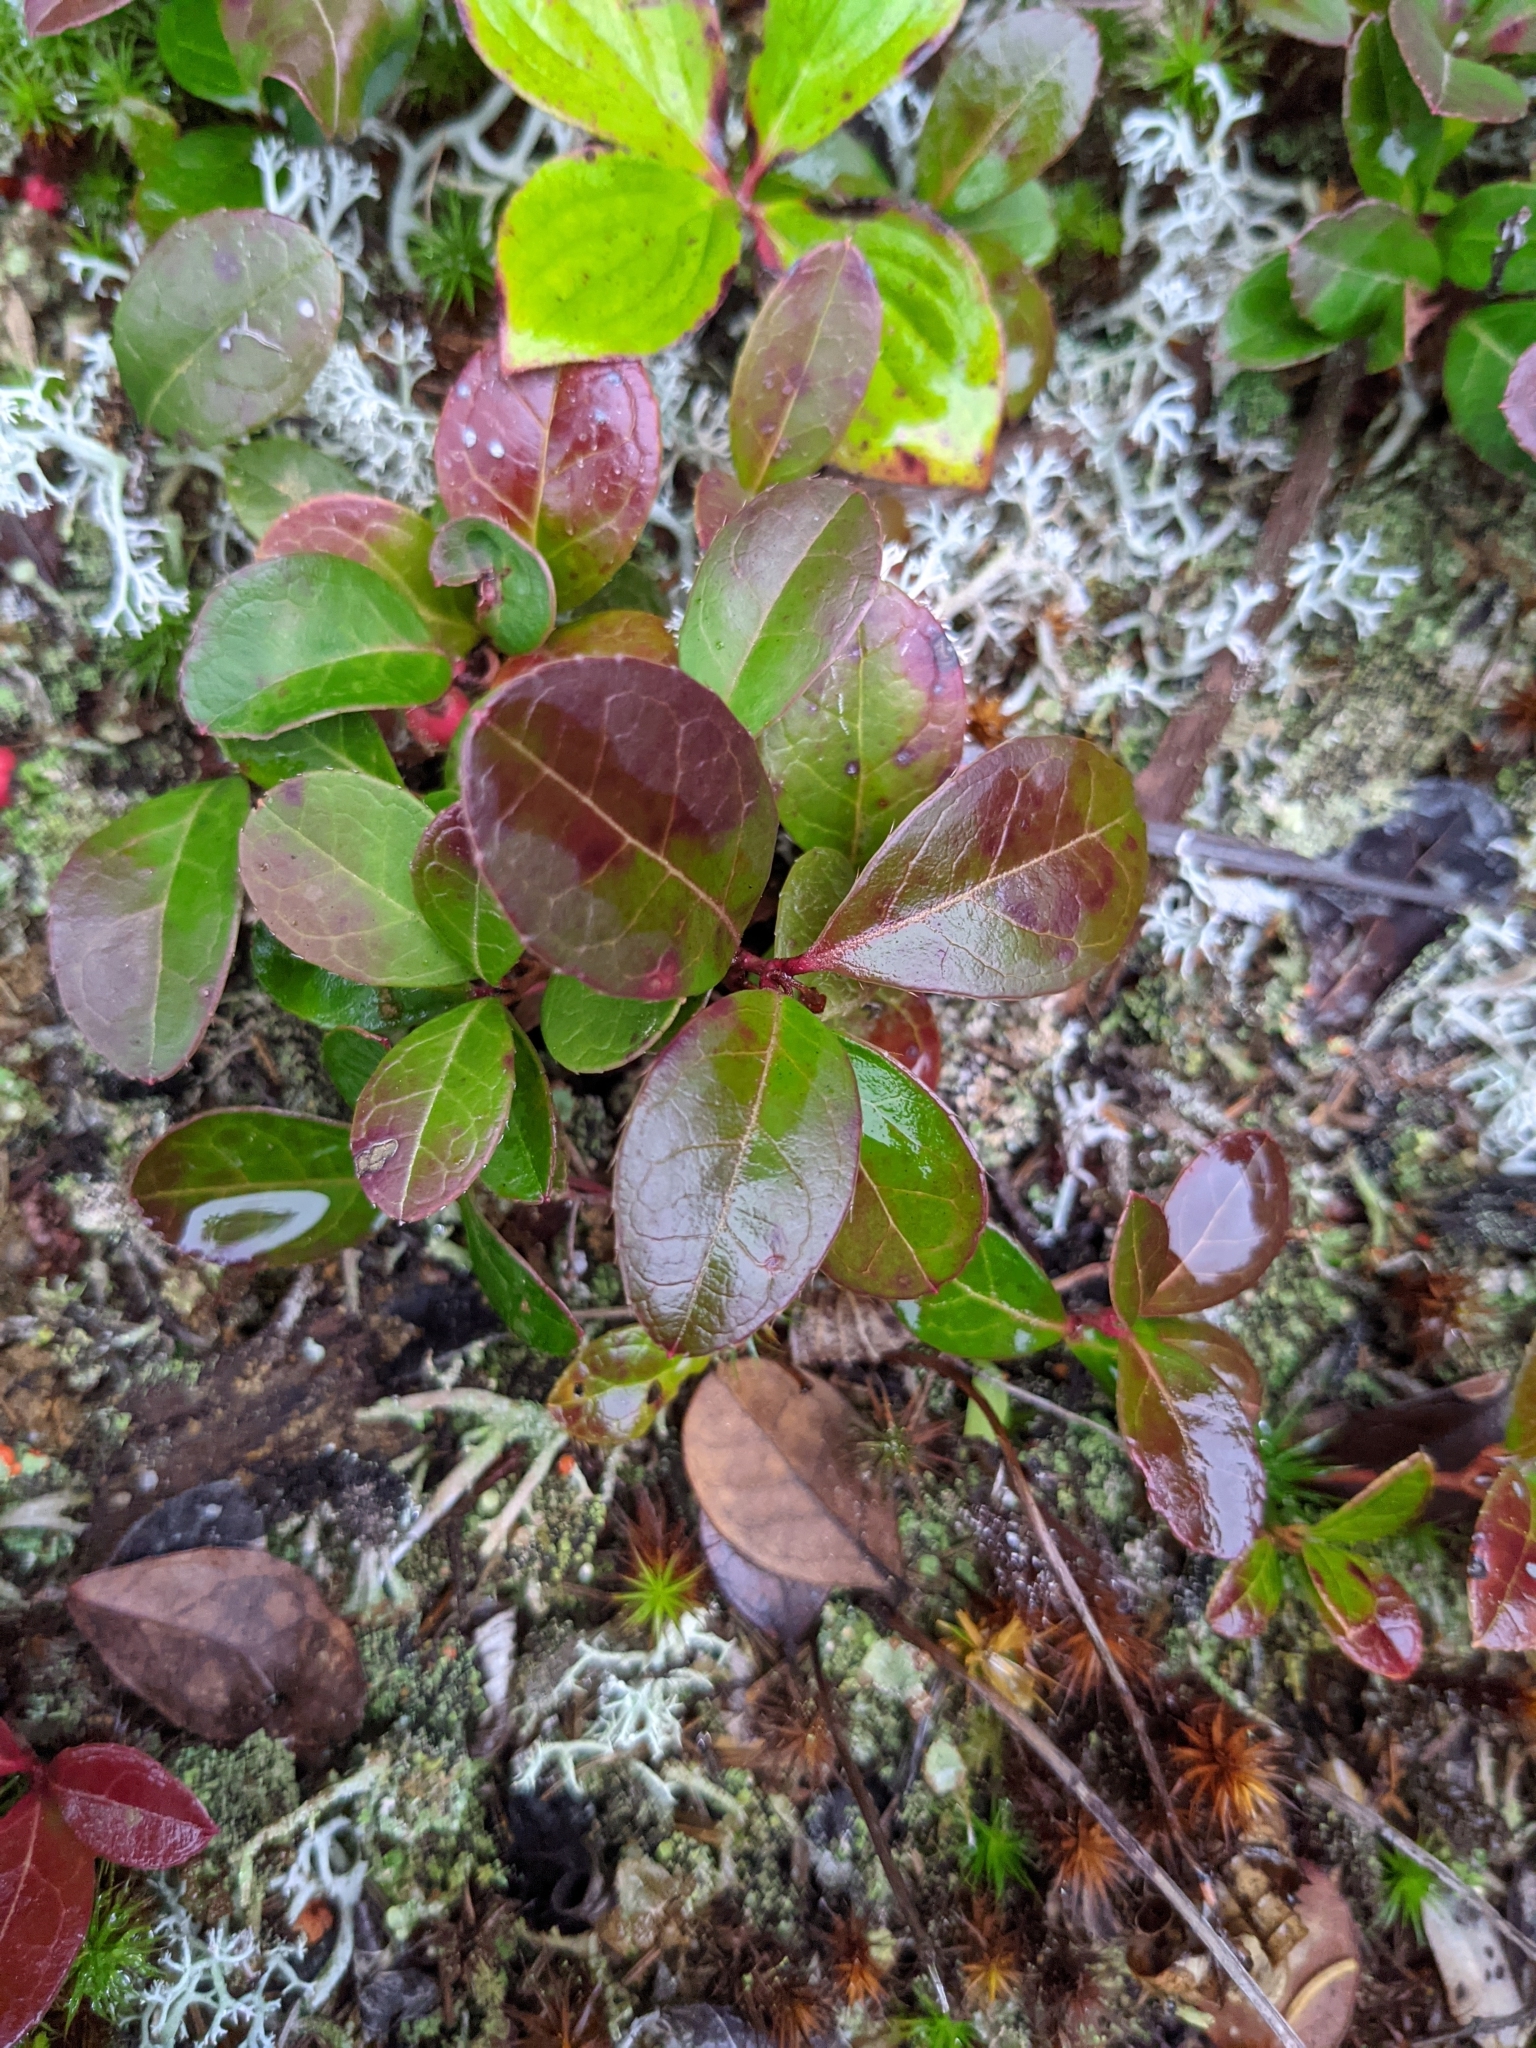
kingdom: Plantae
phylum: Tracheophyta
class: Magnoliopsida
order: Ericales
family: Ericaceae
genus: Gaultheria
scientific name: Gaultheria procumbens
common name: Checkerberry
